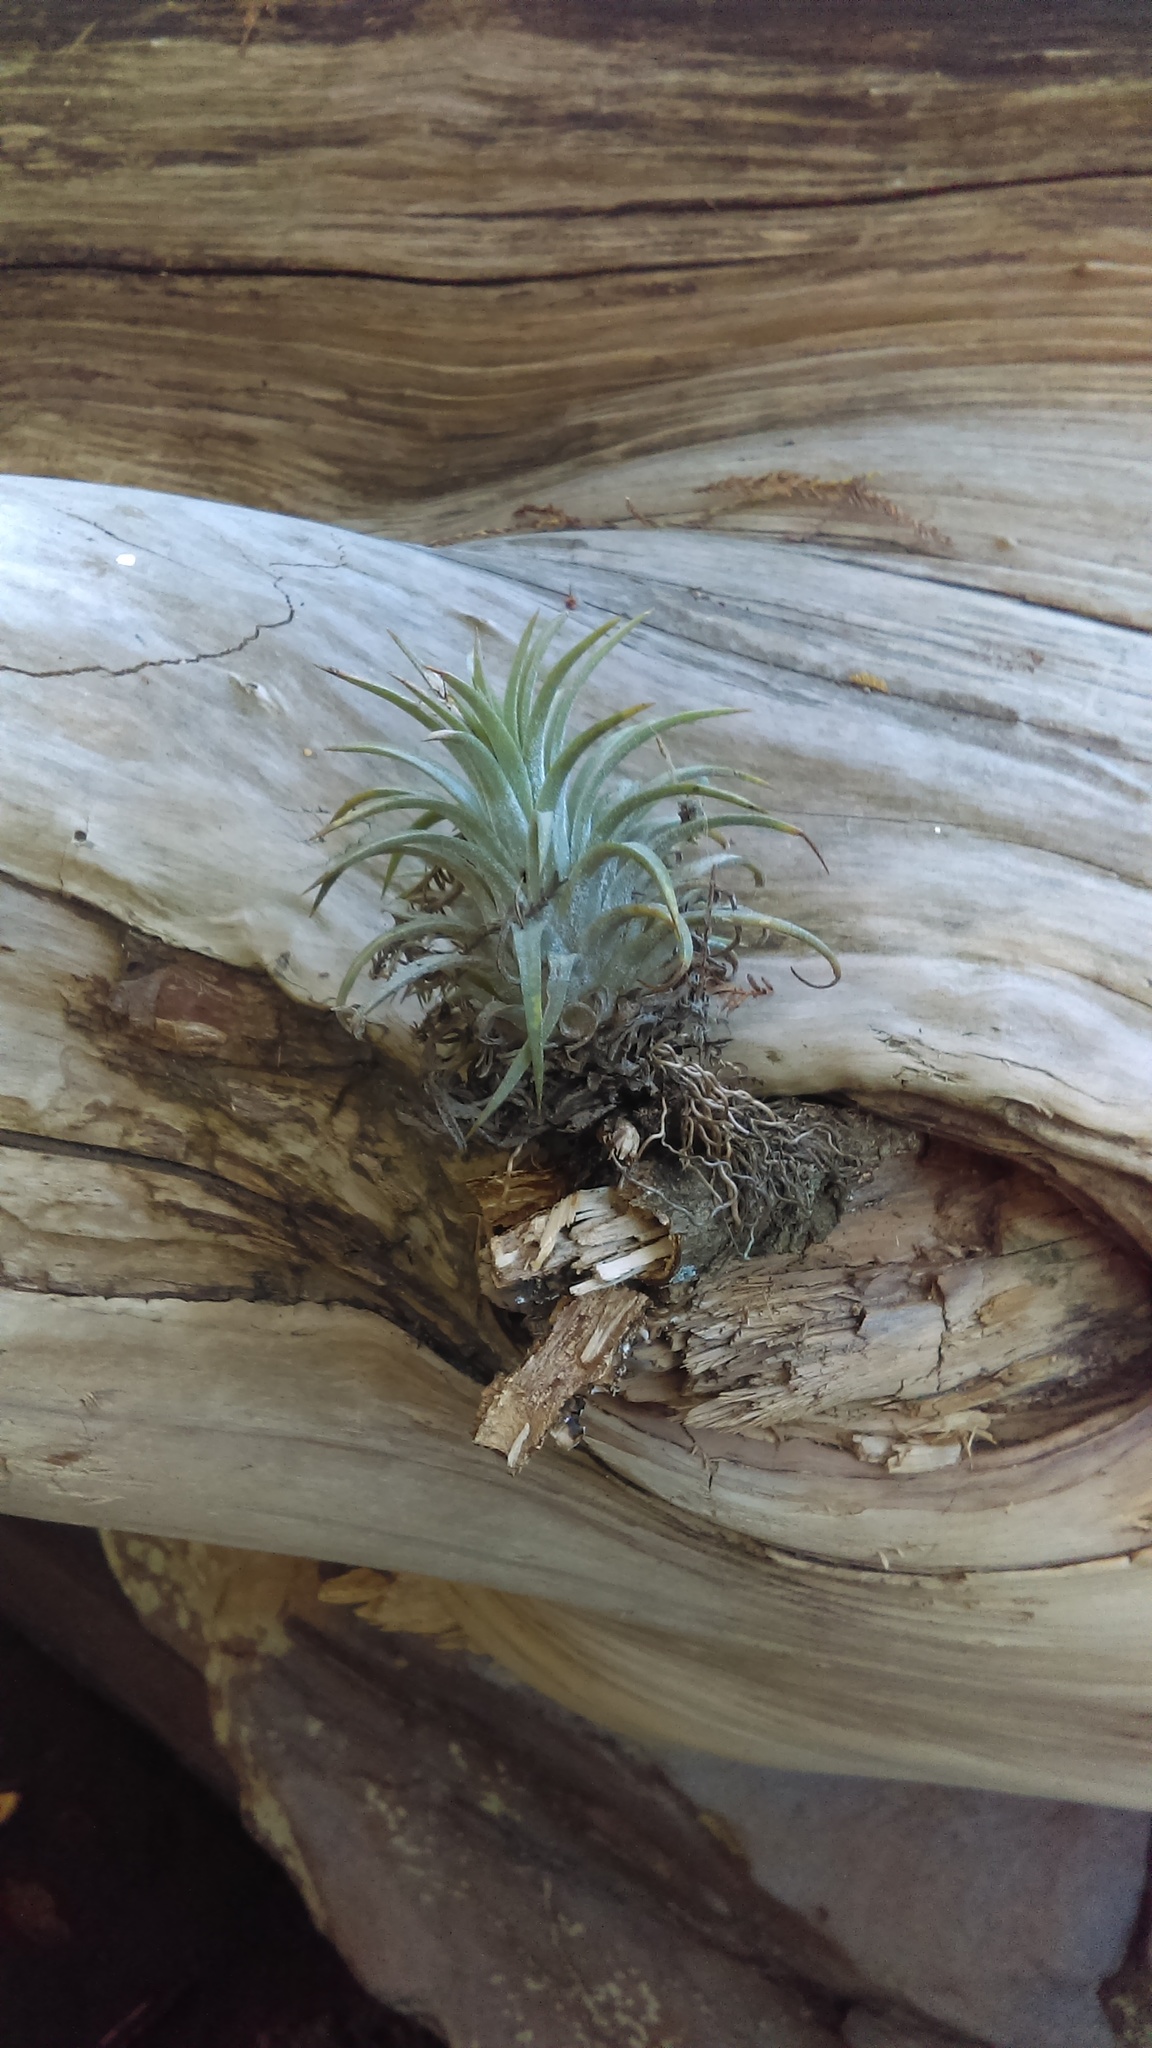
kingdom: Plantae
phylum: Tracheophyta
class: Liliopsida
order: Poales
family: Bromeliaceae
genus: Tillandsia
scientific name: Tillandsia ionantha
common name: Sky plant
